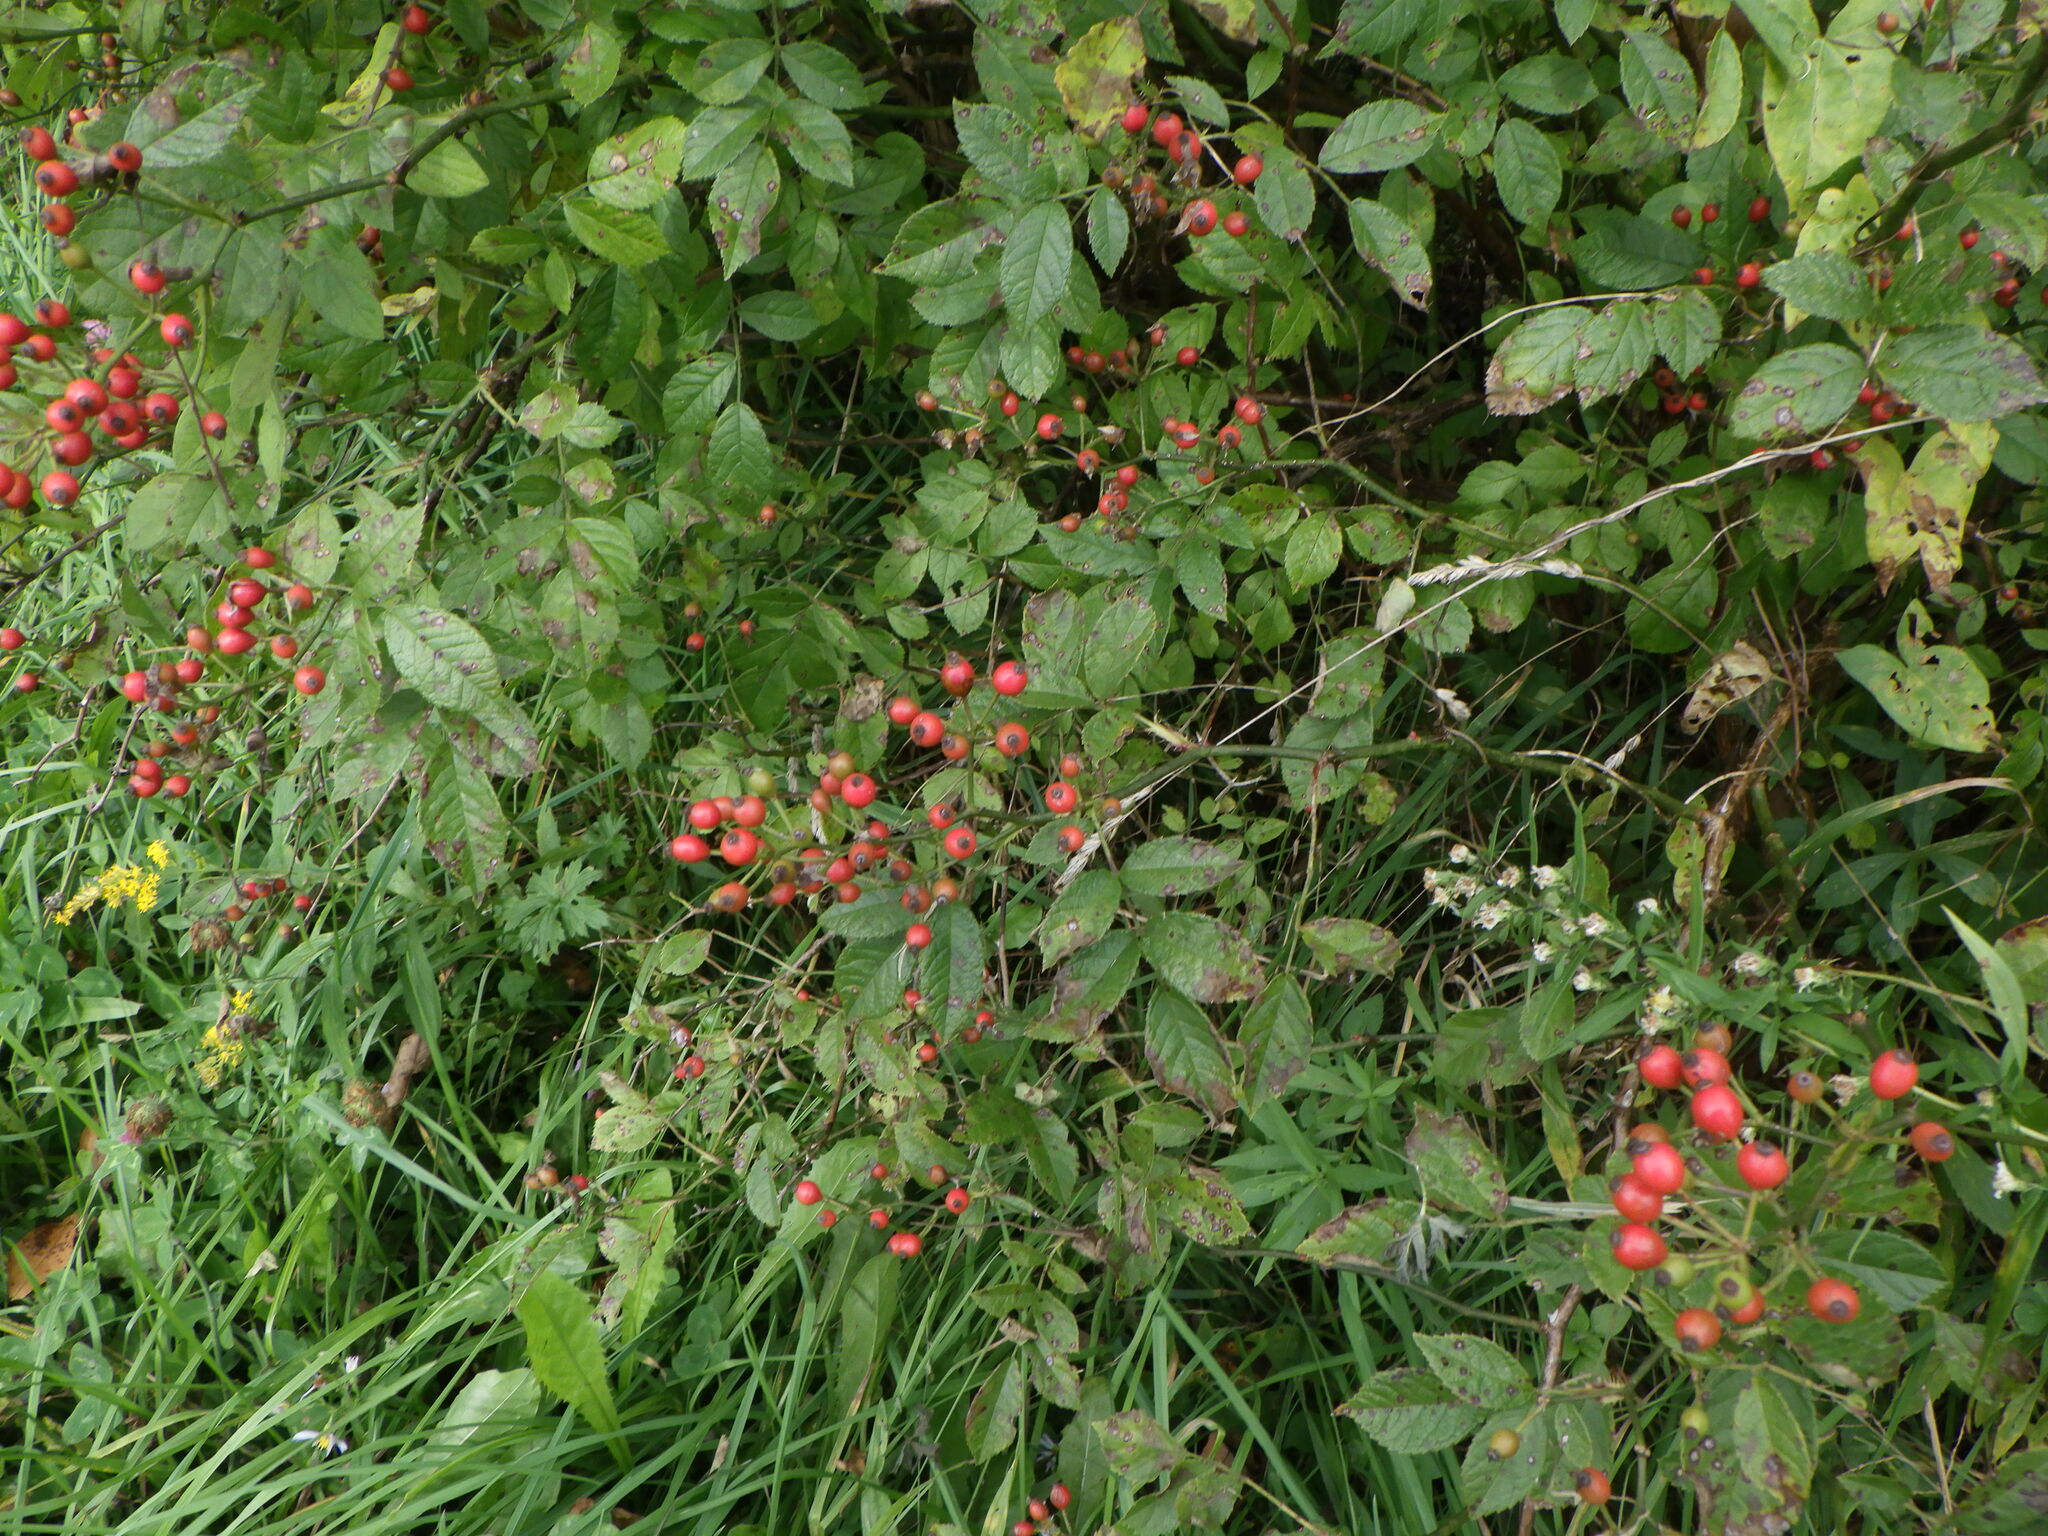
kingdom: Plantae
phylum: Tracheophyta
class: Magnoliopsida
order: Rosales
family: Rosaceae
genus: Rosa
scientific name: Rosa multiflora
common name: Multiflora rose
